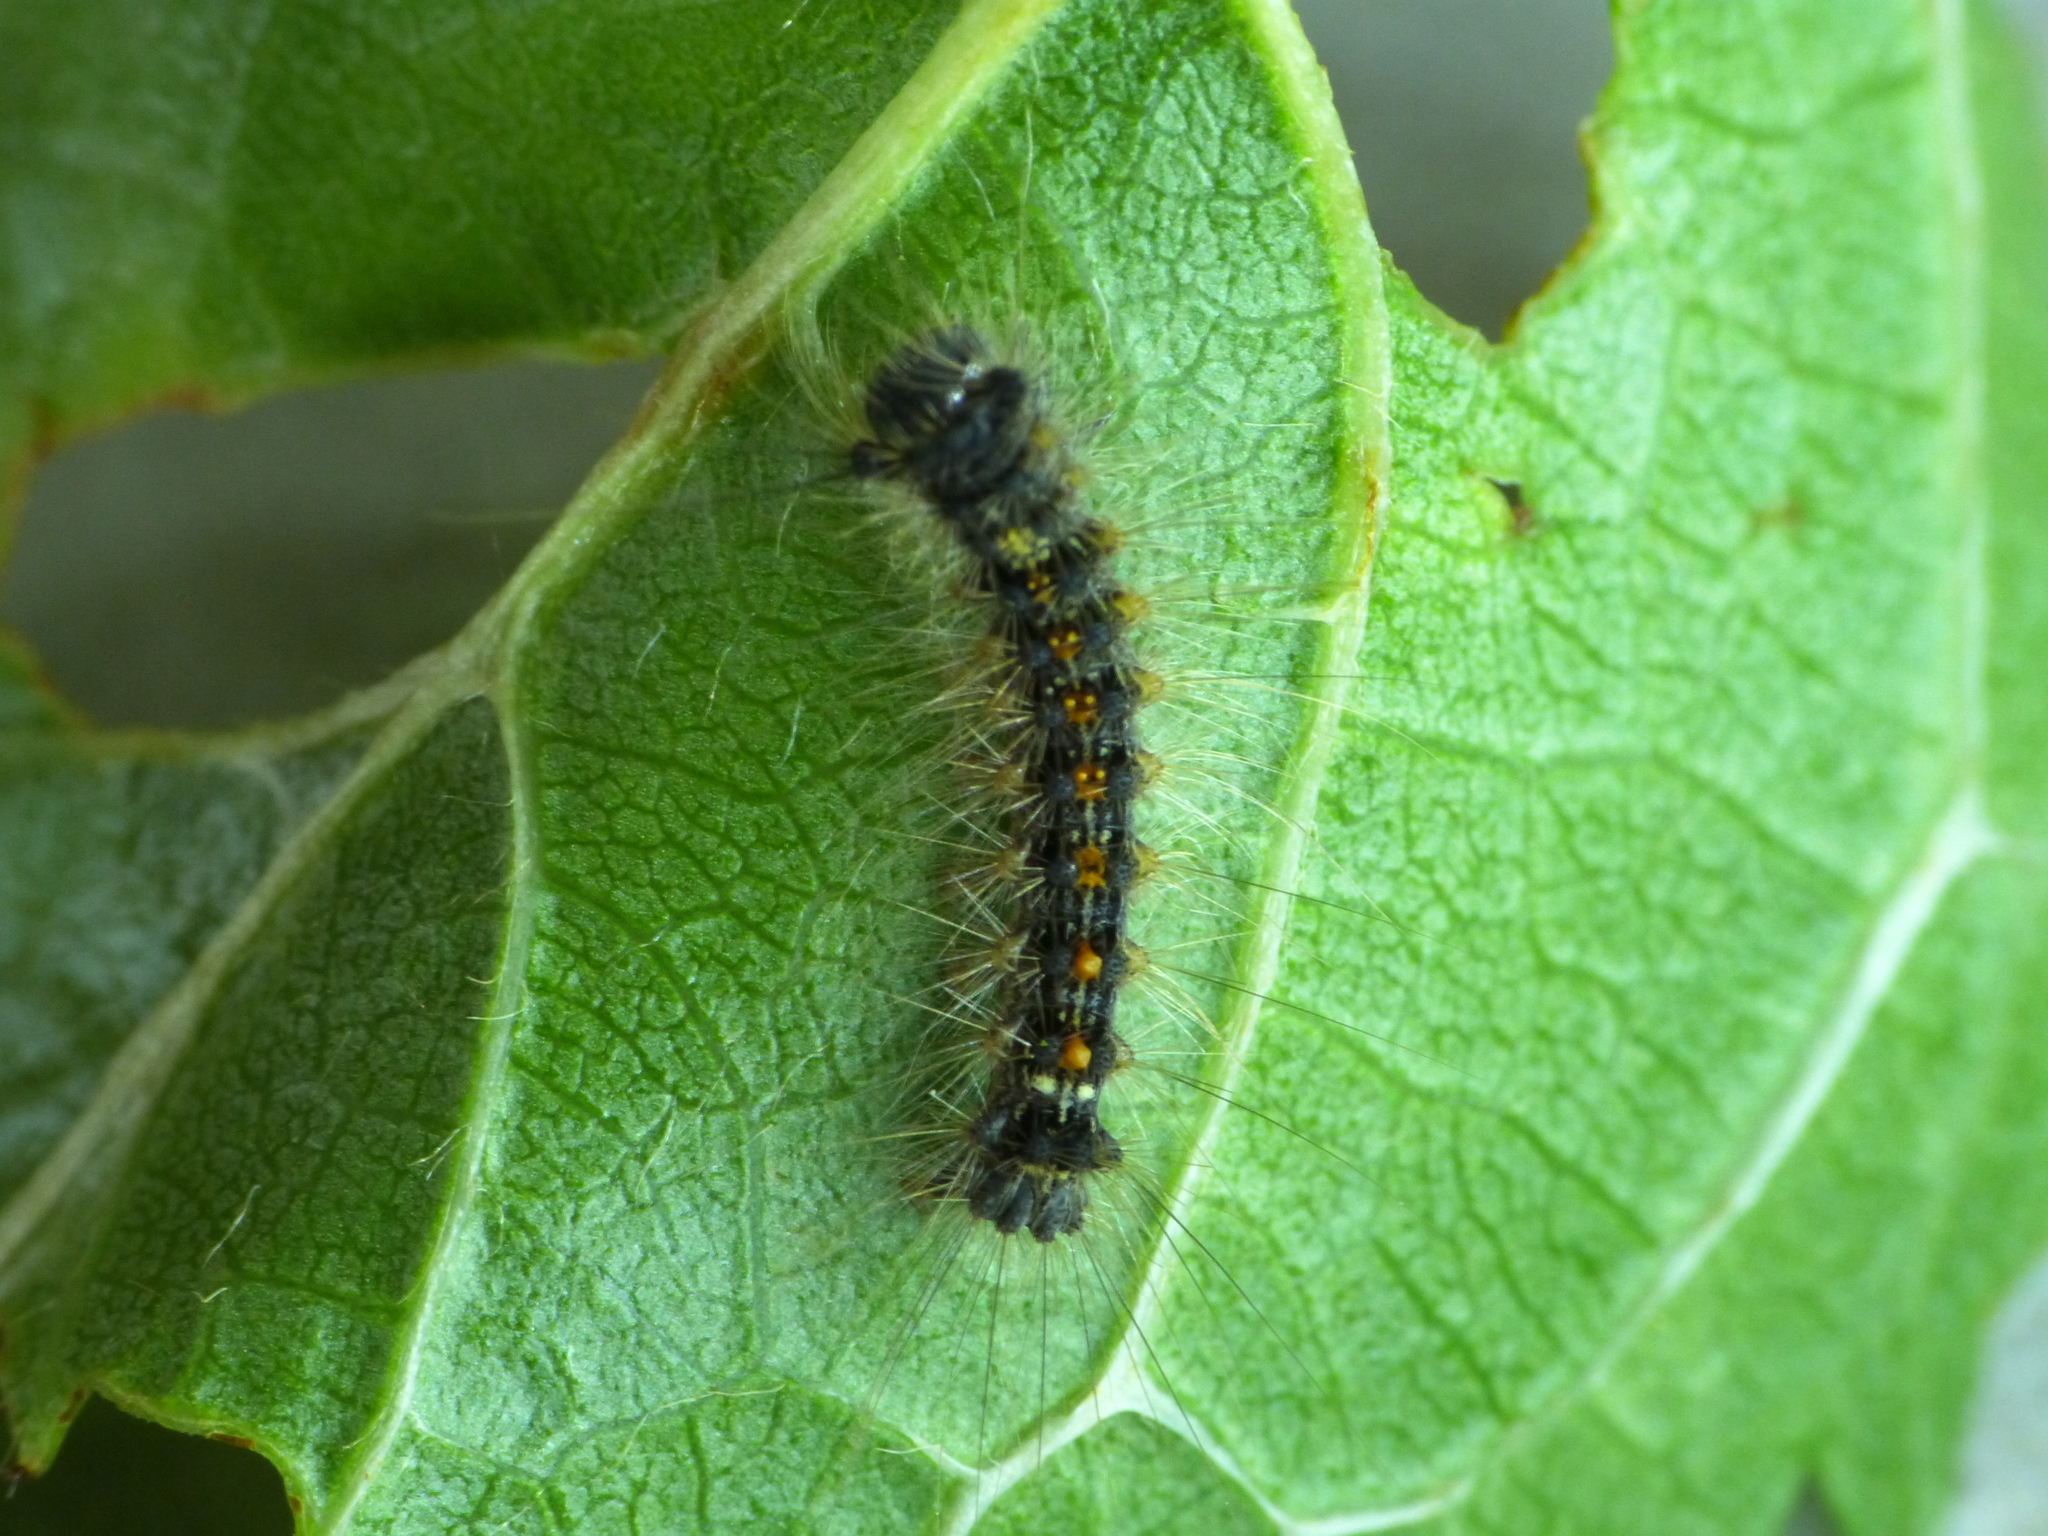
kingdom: Animalia
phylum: Arthropoda
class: Insecta
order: Lepidoptera
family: Erebidae
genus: Lymantria
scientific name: Lymantria dispar
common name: Gypsy moth
